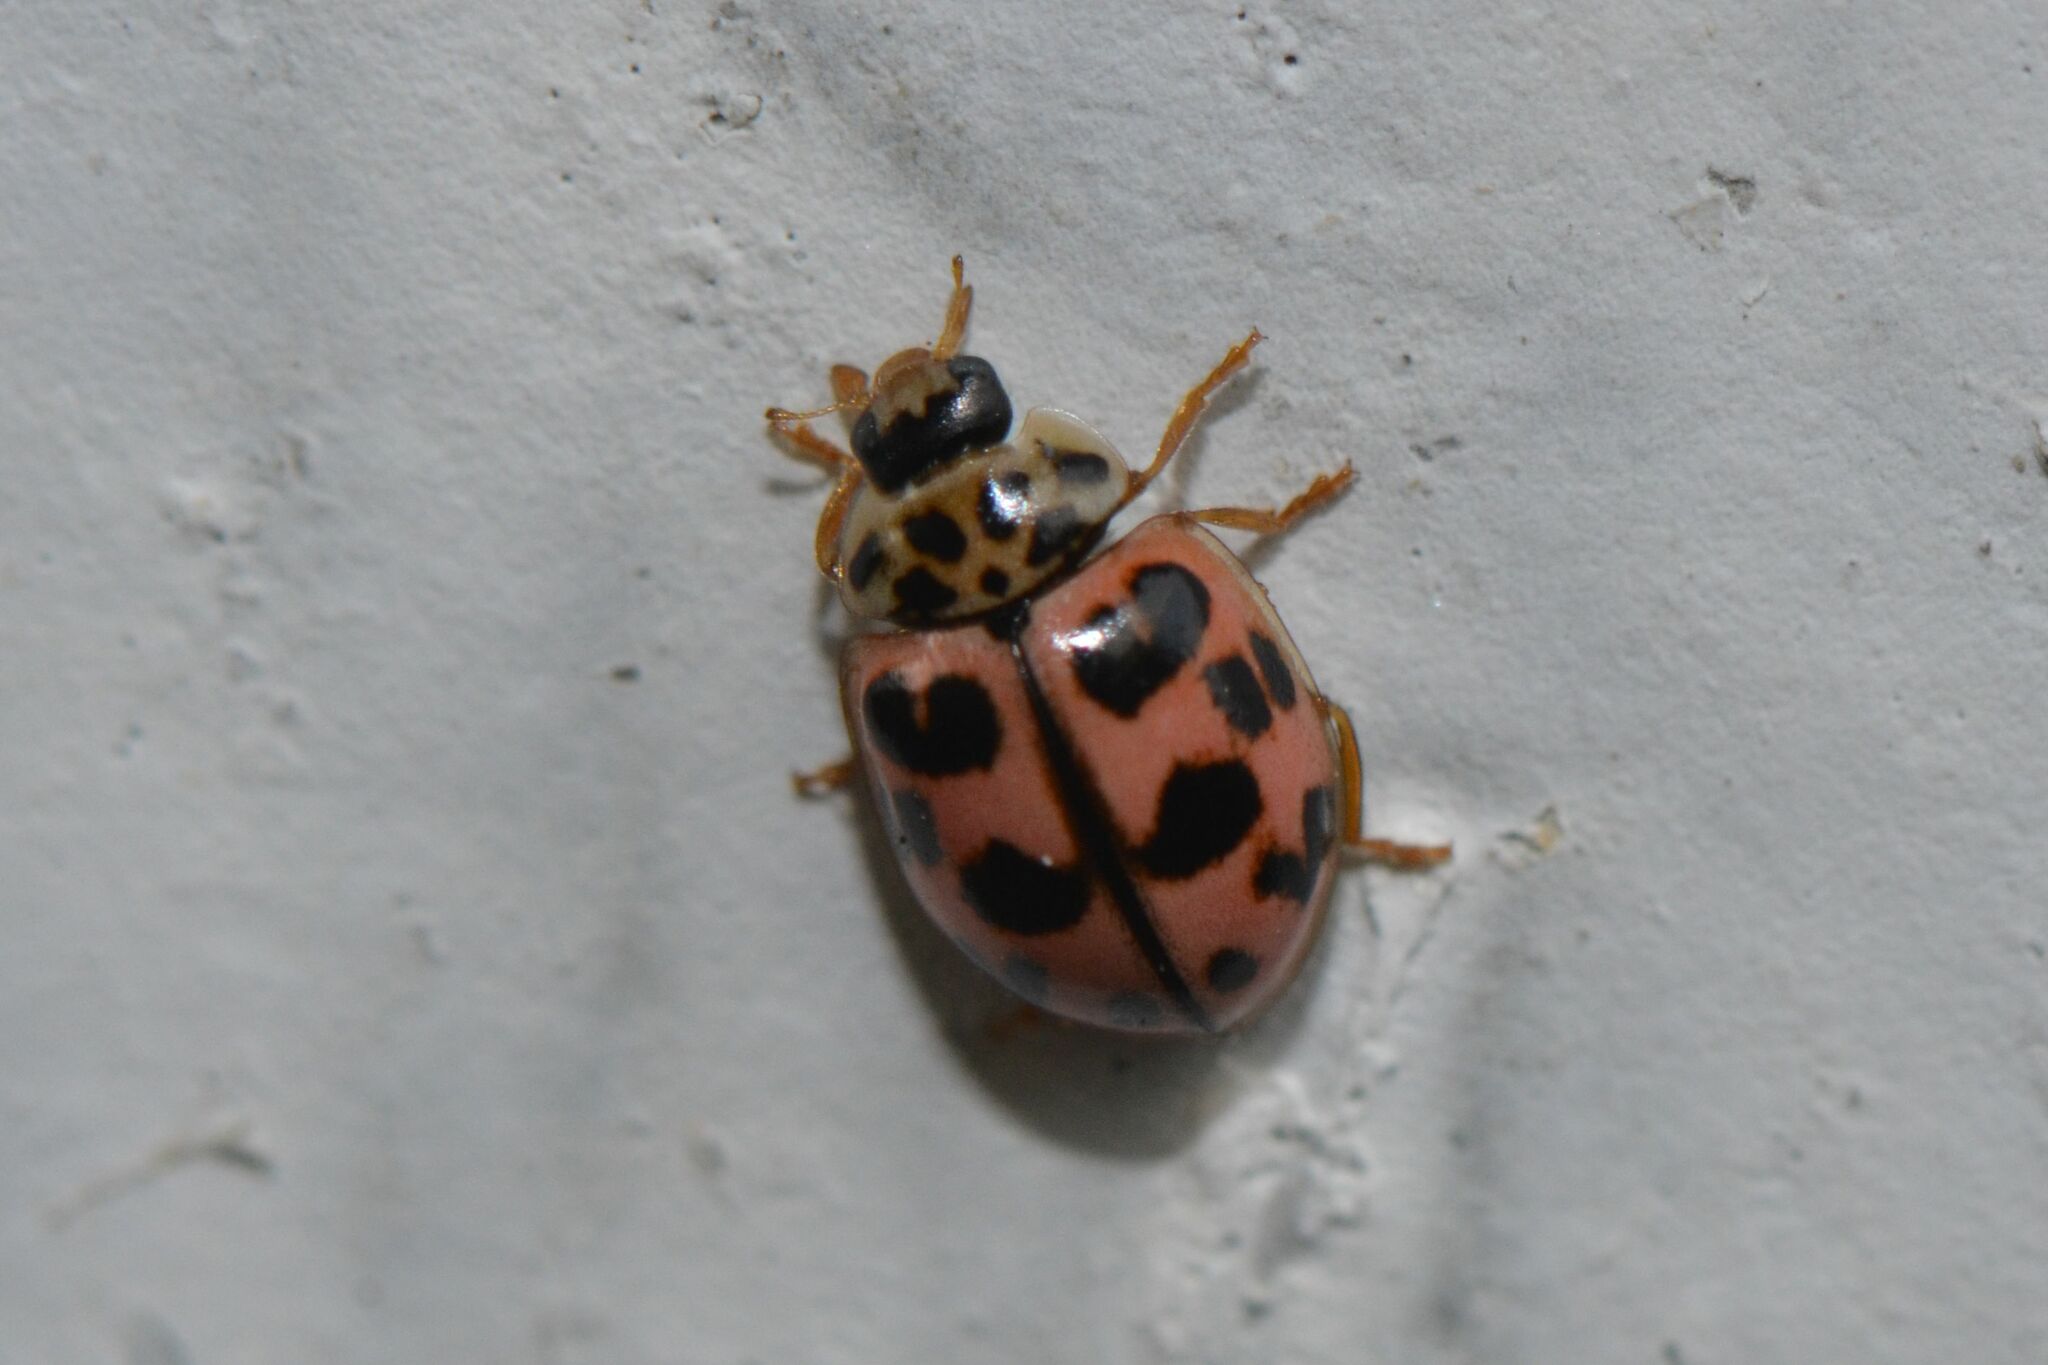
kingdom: Animalia
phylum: Arthropoda
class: Insecta
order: Coleoptera
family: Coccinellidae
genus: Oenopia
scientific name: Oenopia conglobata
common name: Ladybird beetle
